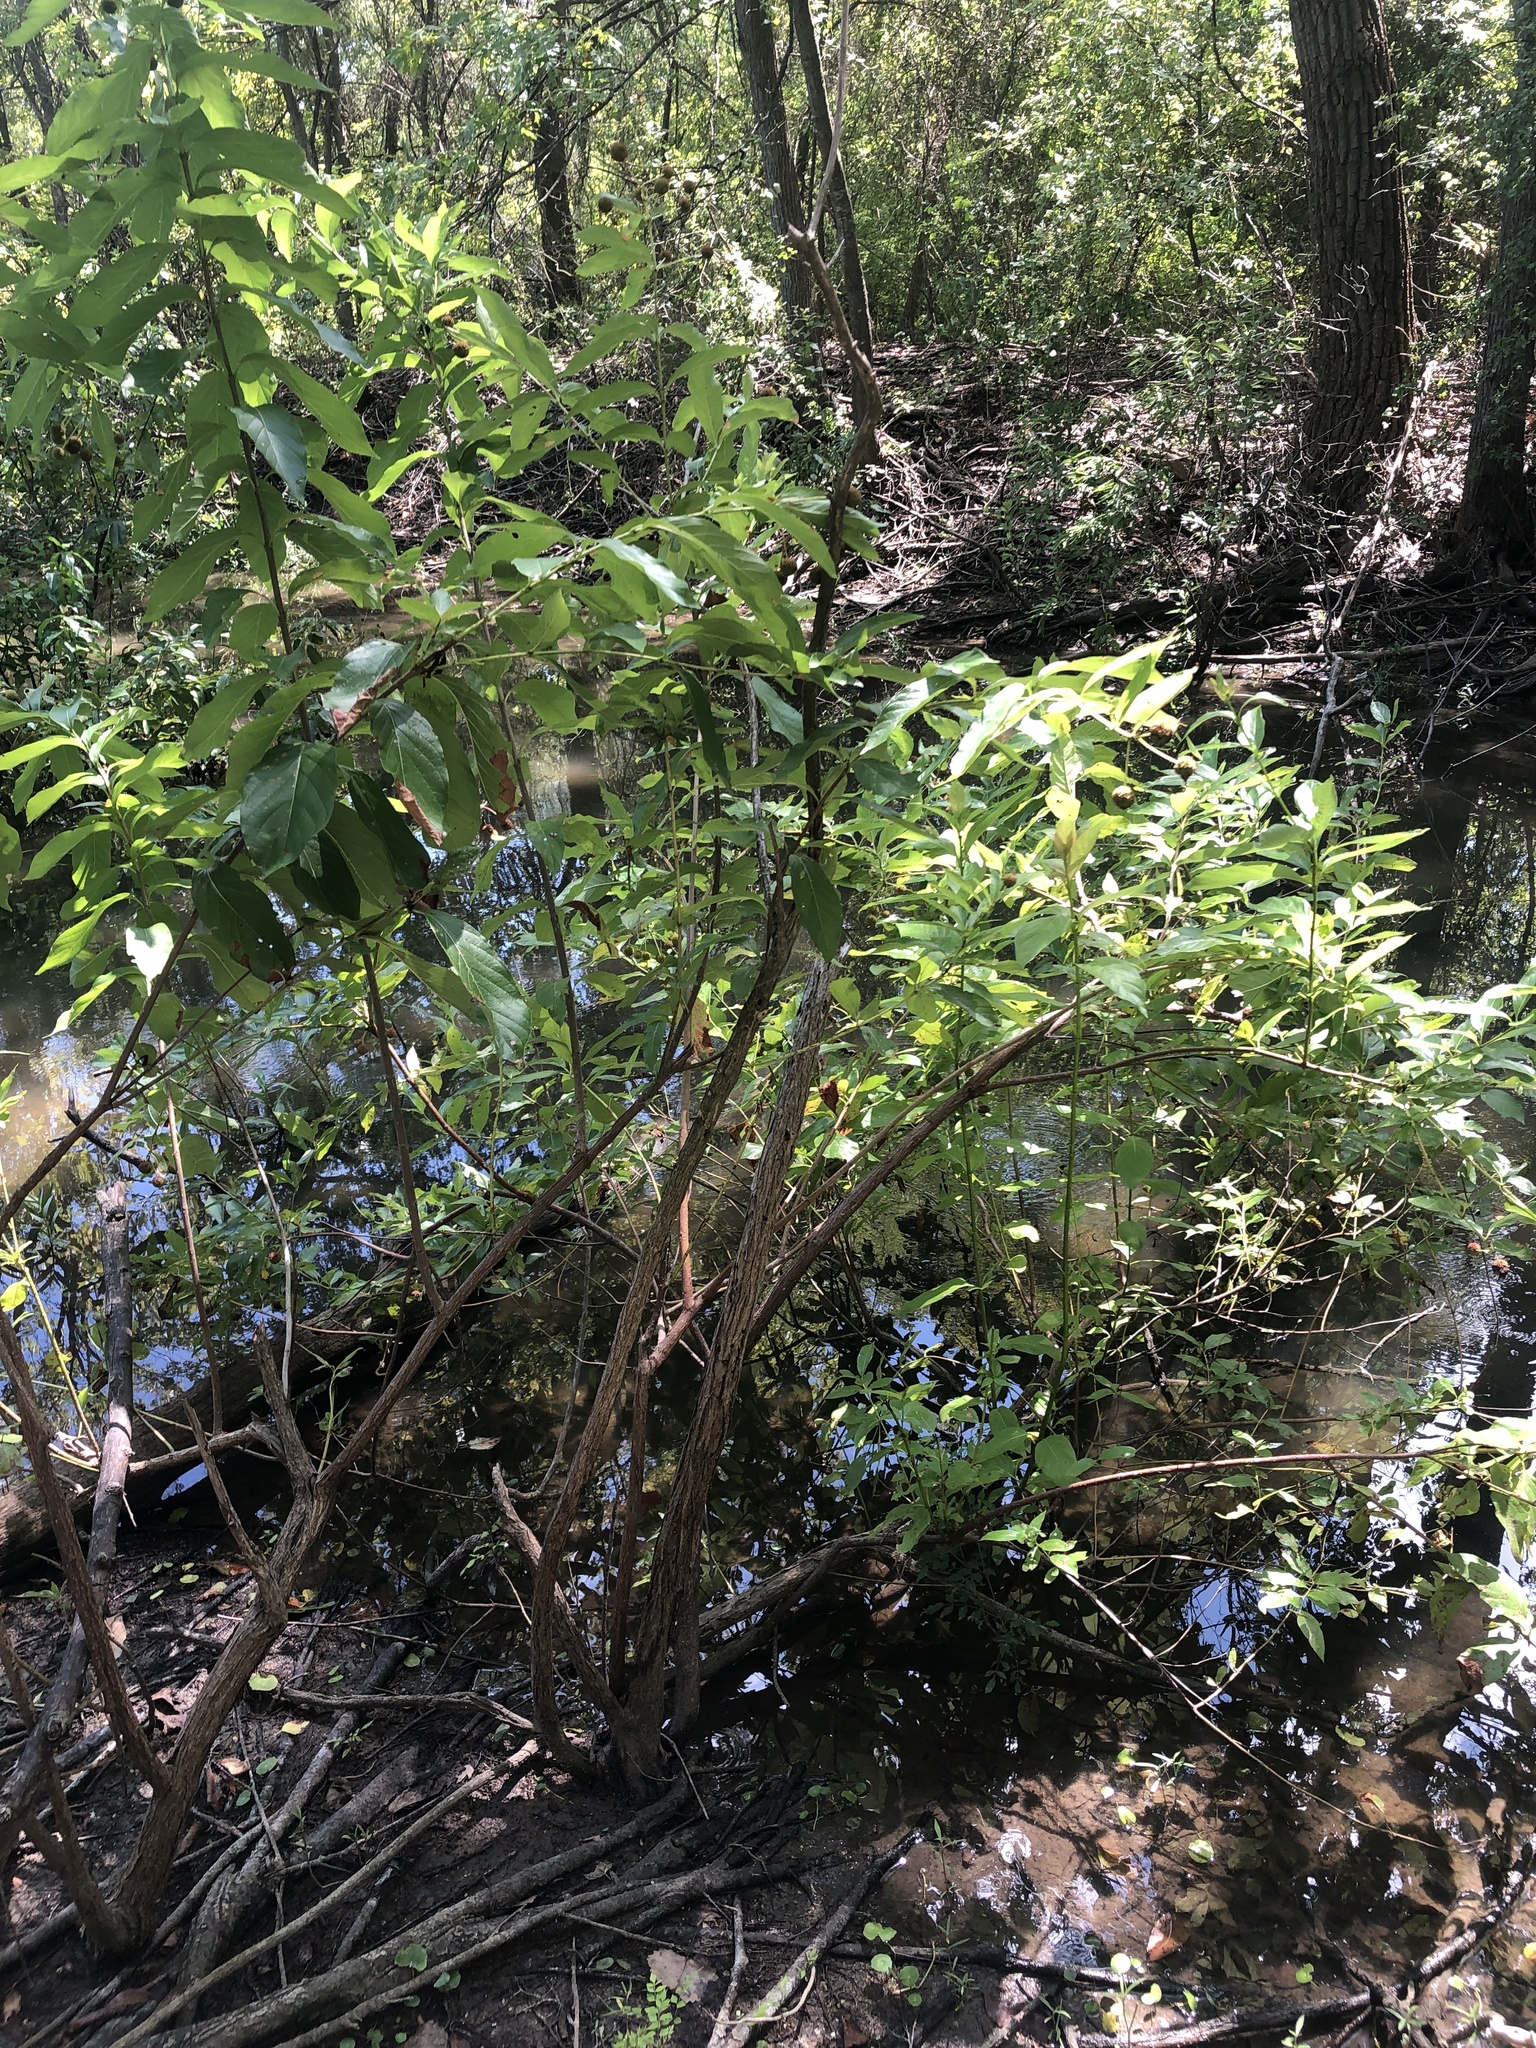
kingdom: Plantae
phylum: Tracheophyta
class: Magnoliopsida
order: Gentianales
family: Rubiaceae
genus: Cephalanthus
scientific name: Cephalanthus occidentalis
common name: Button-willow
